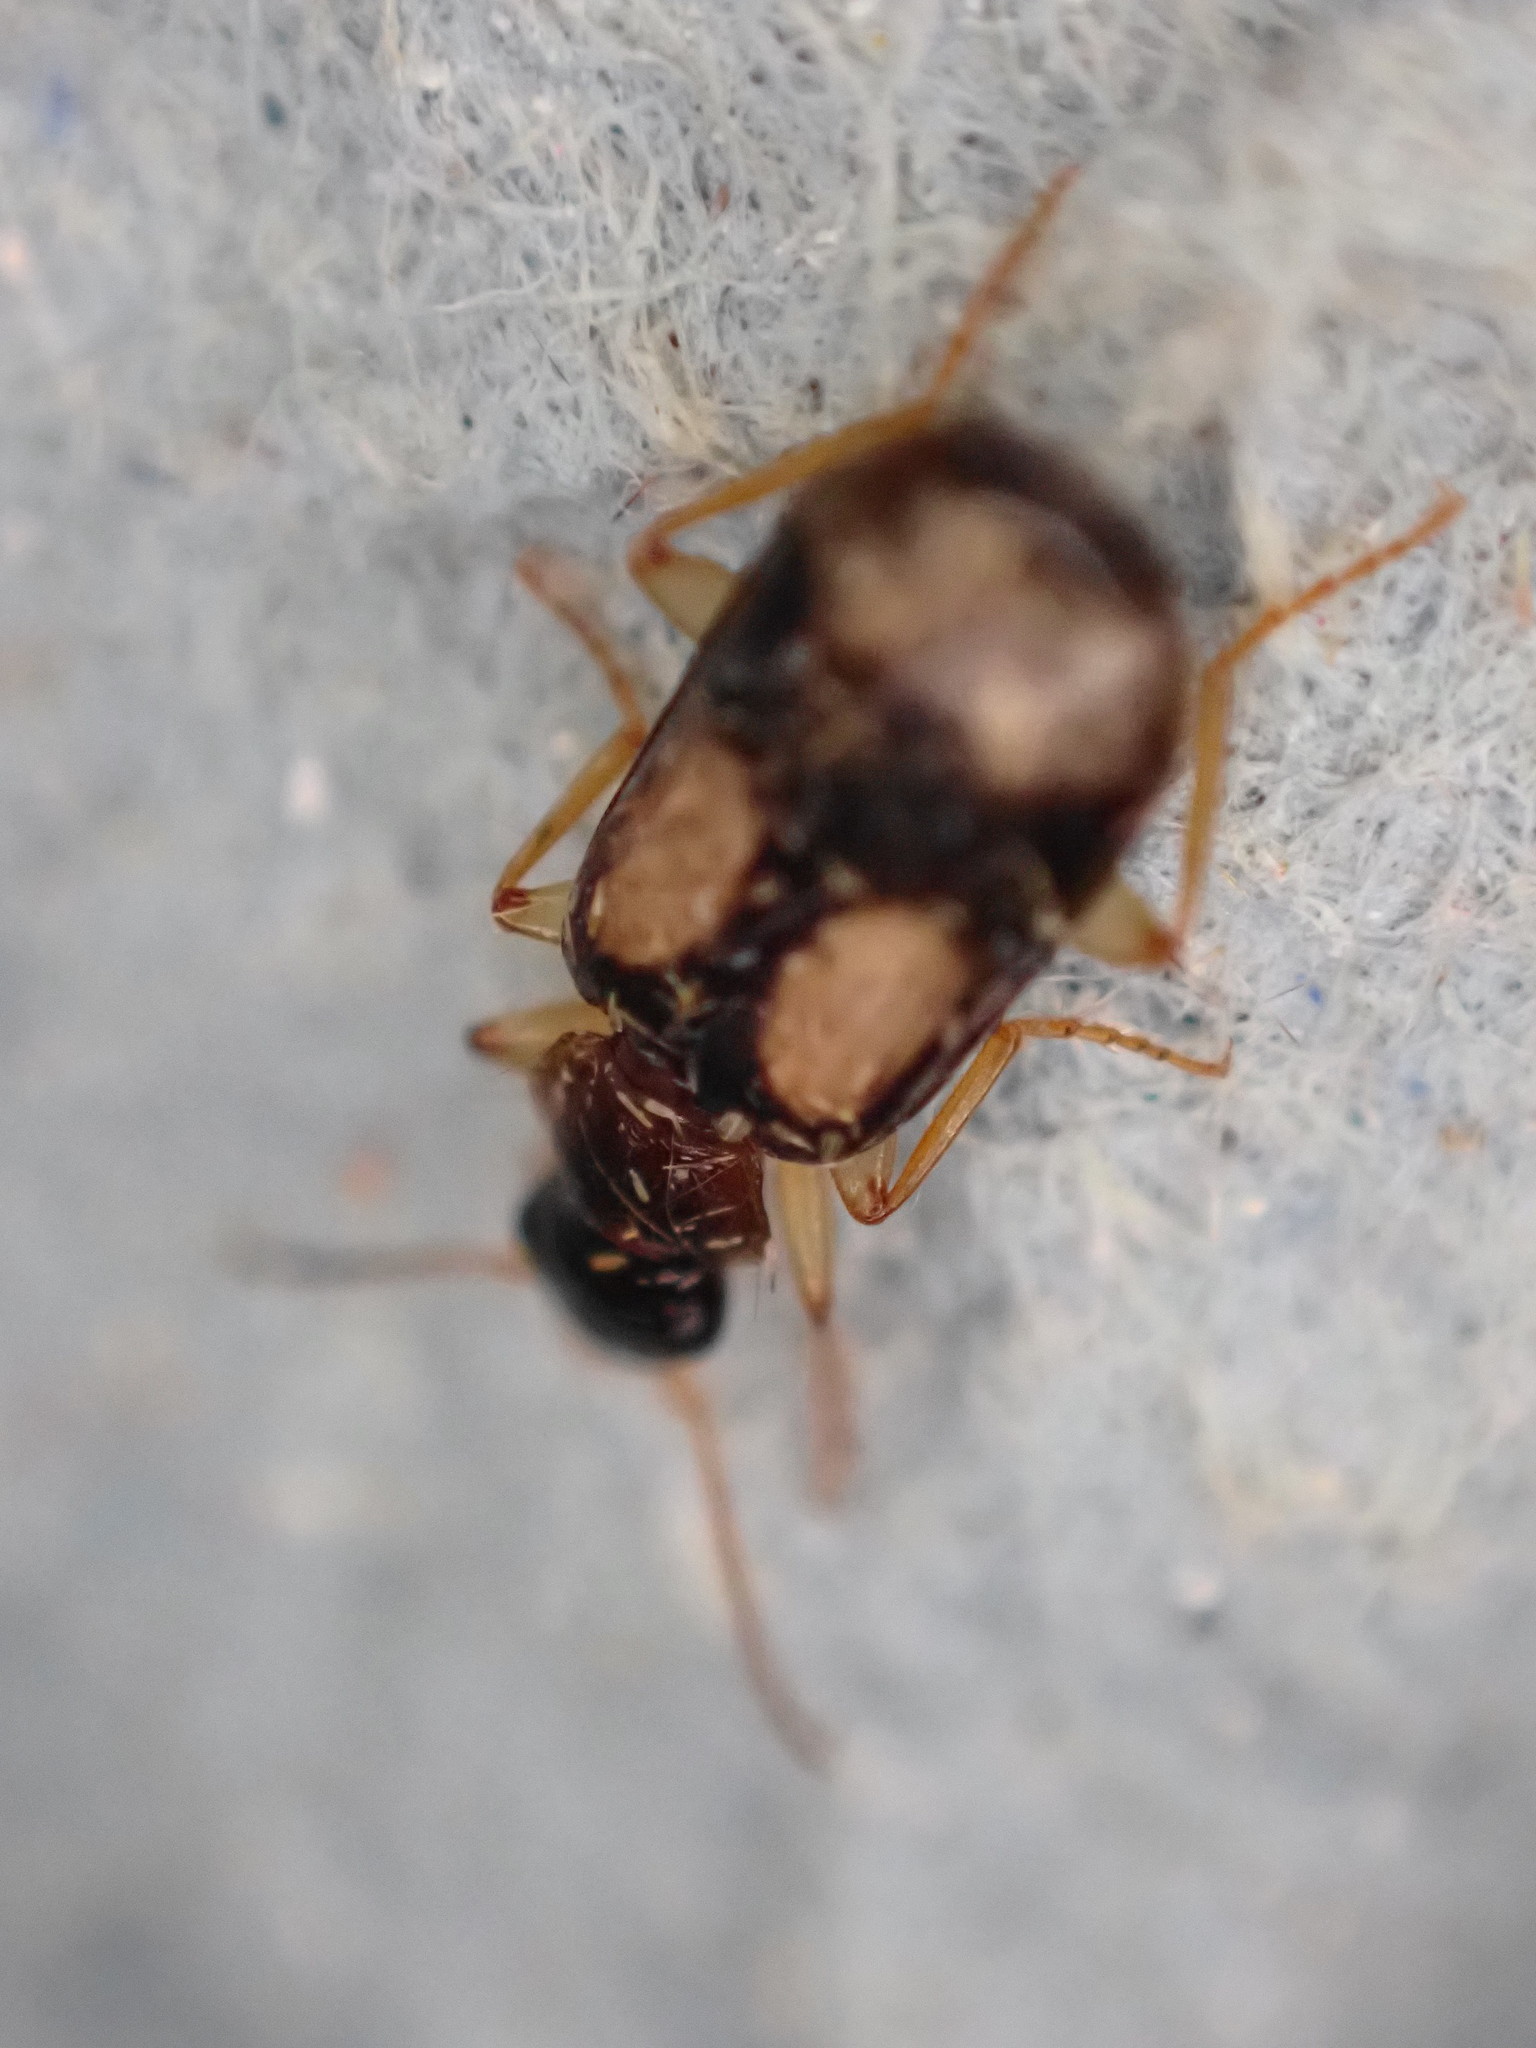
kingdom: Animalia
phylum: Arthropoda
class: Insecta
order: Coleoptera
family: Carabidae
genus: Dromius
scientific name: Dromius quadrimaculatus
